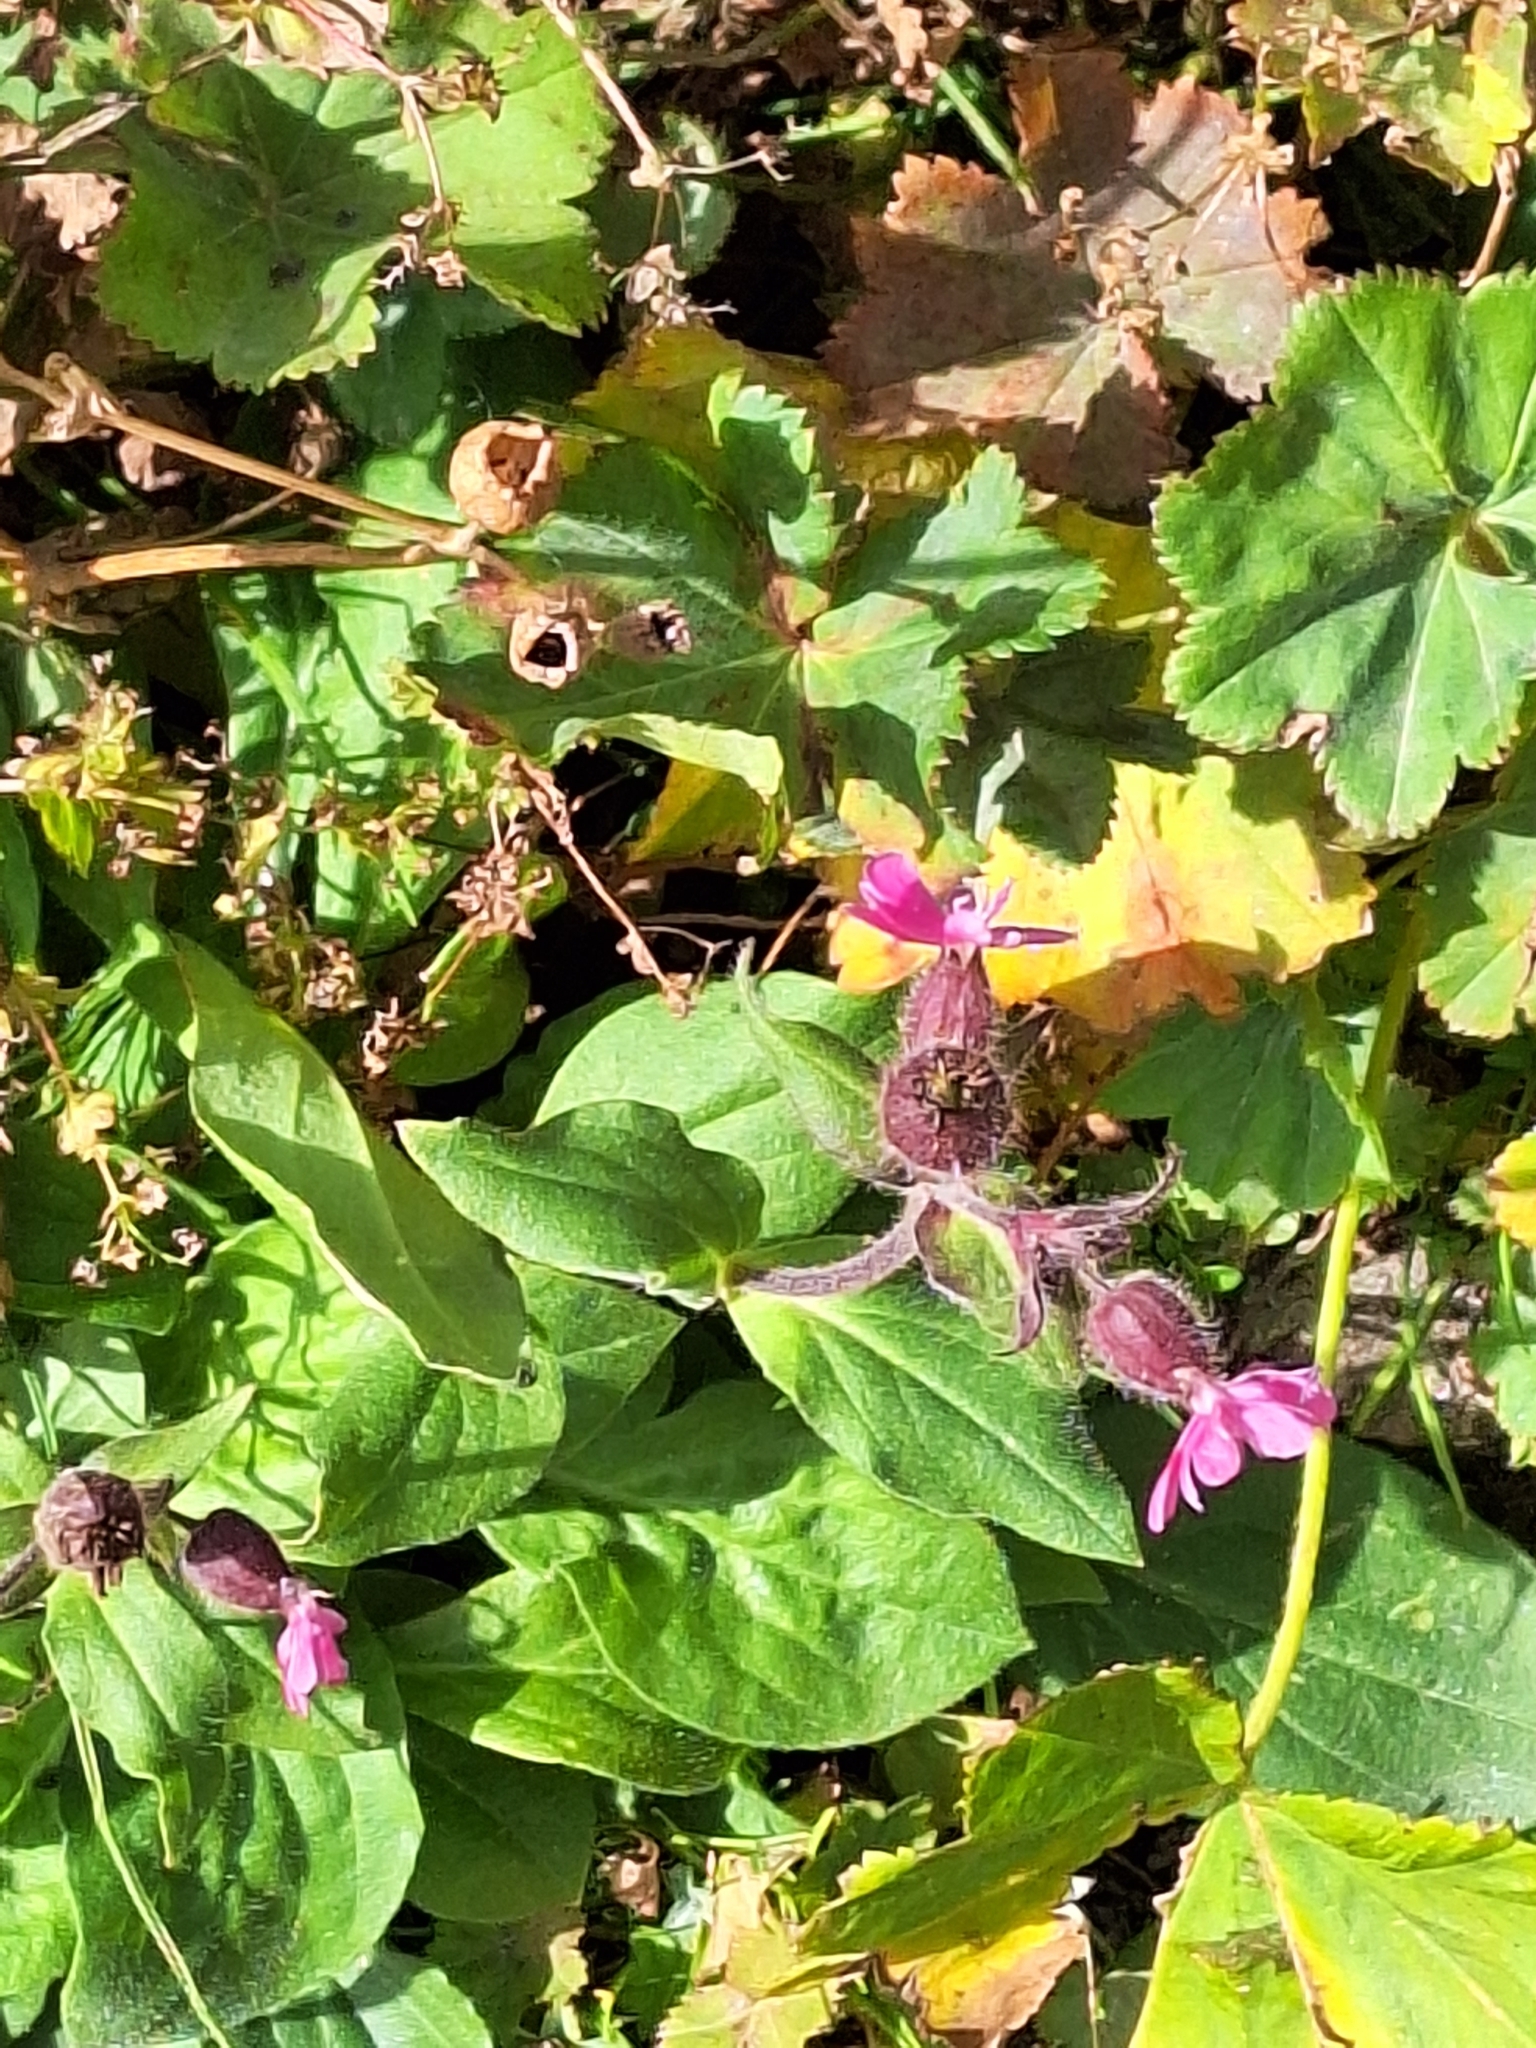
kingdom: Plantae
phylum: Tracheophyta
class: Magnoliopsida
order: Caryophyllales
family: Caryophyllaceae
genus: Silene
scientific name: Silene dioica
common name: Red campion
